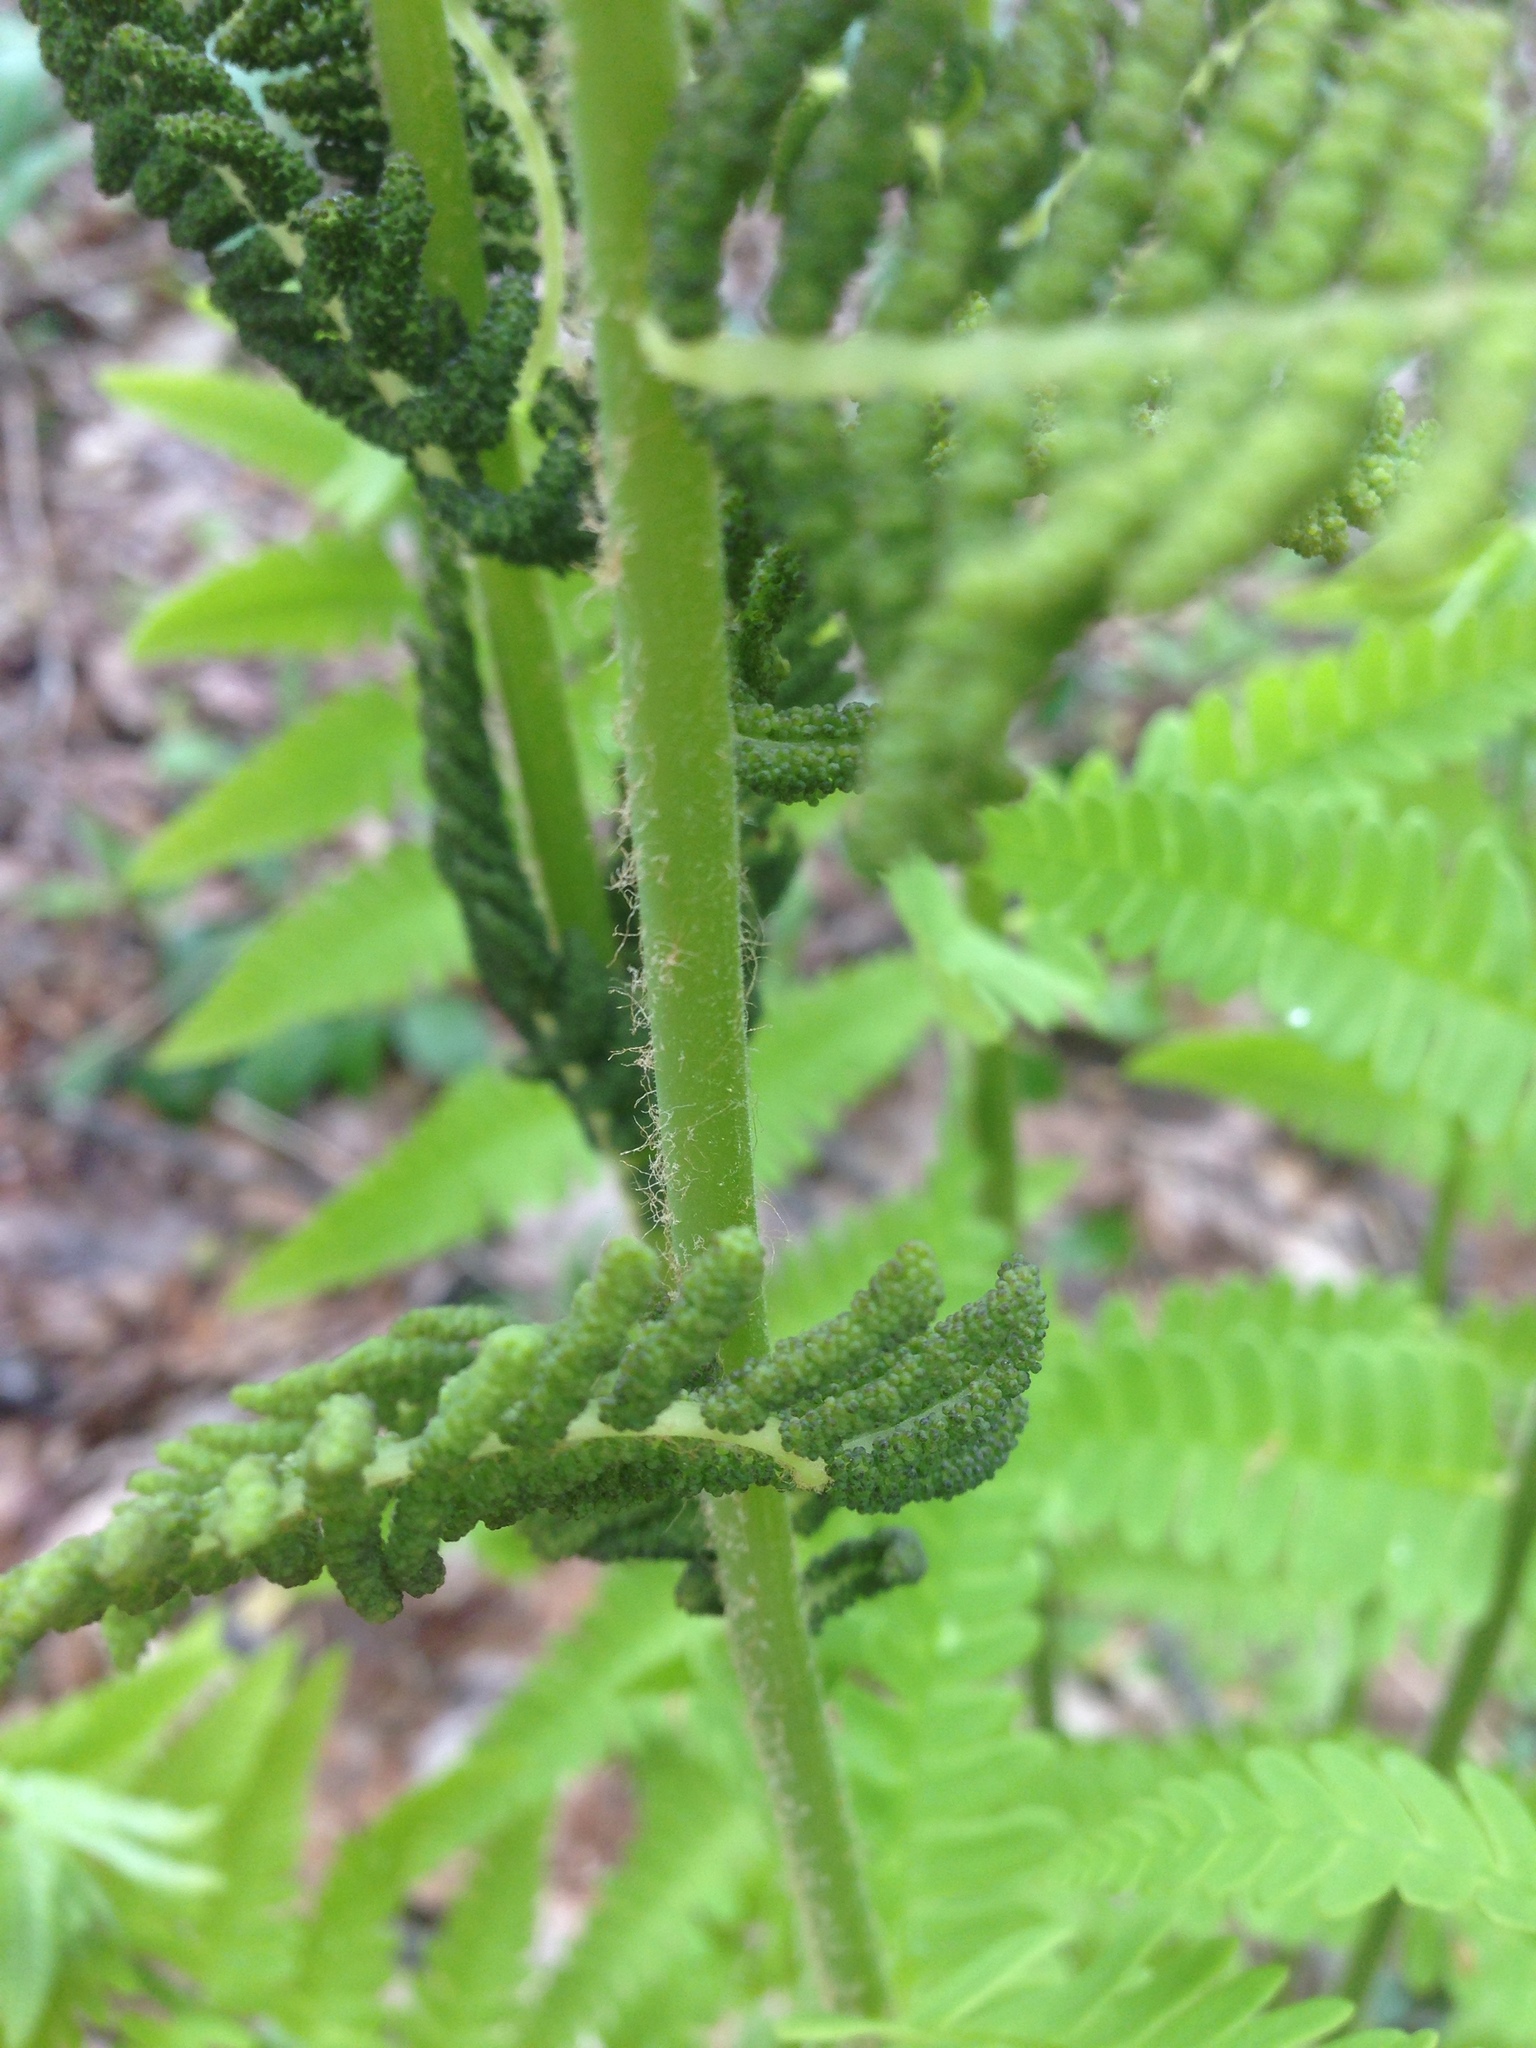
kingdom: Plantae
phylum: Tracheophyta
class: Polypodiopsida
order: Osmundales
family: Osmundaceae
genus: Claytosmunda
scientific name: Claytosmunda claytoniana
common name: Clayton's fern
